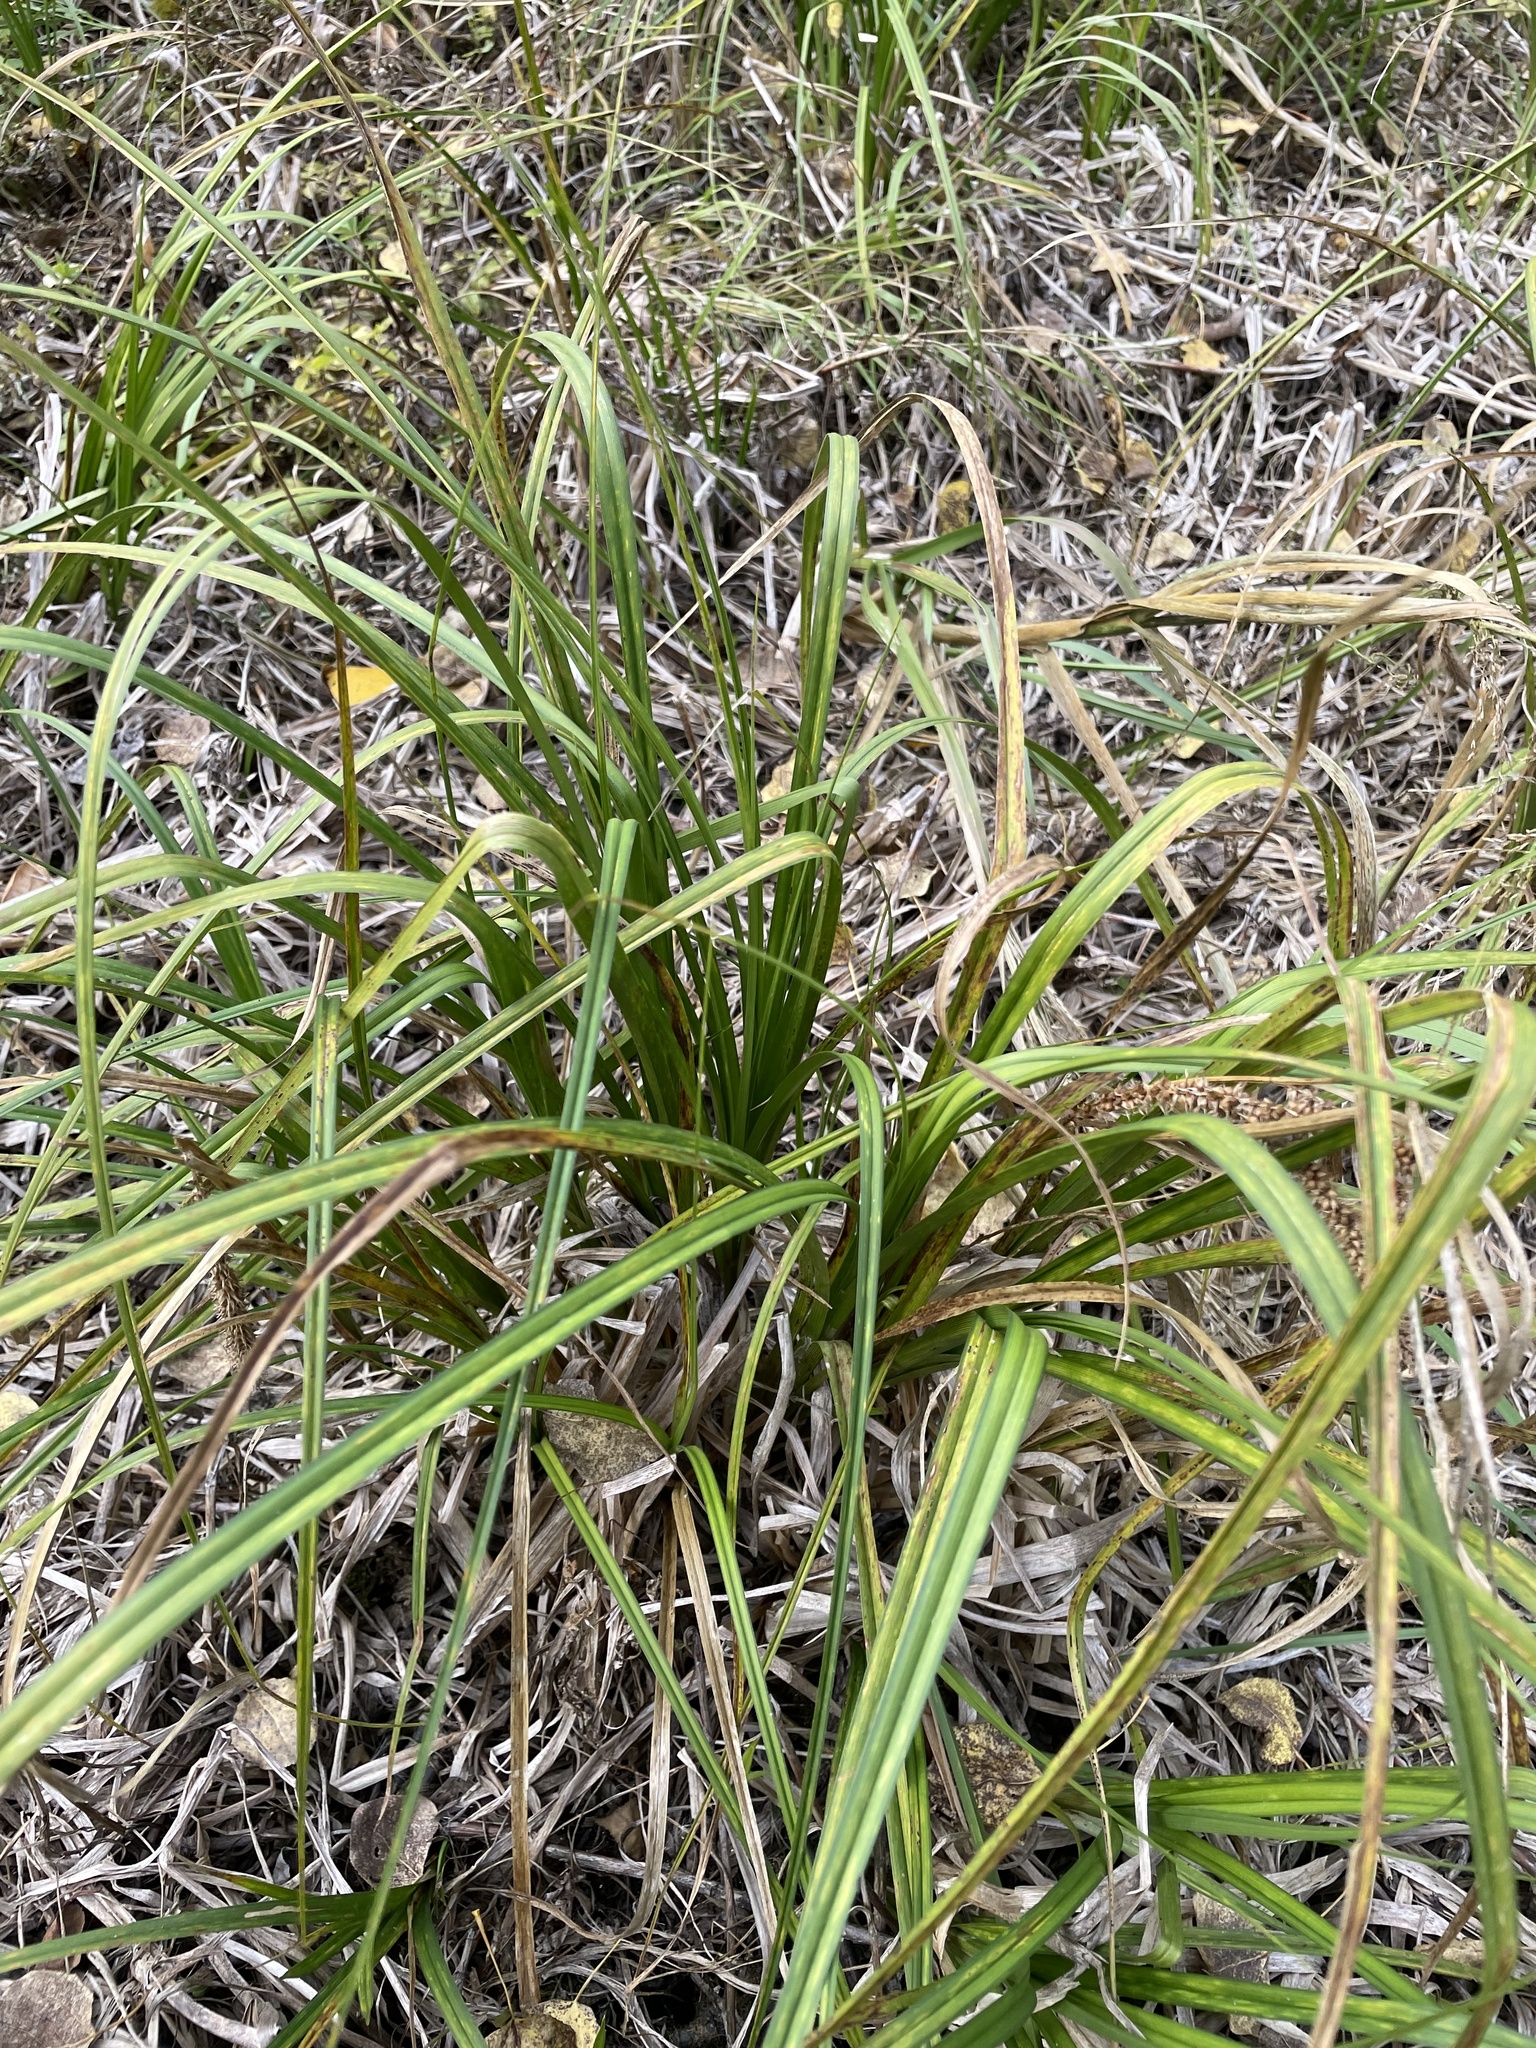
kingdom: Plantae
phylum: Tracheophyta
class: Liliopsida
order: Poales
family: Cyperaceae
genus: Carex
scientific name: Carex utriculata
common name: Beaked sedge
